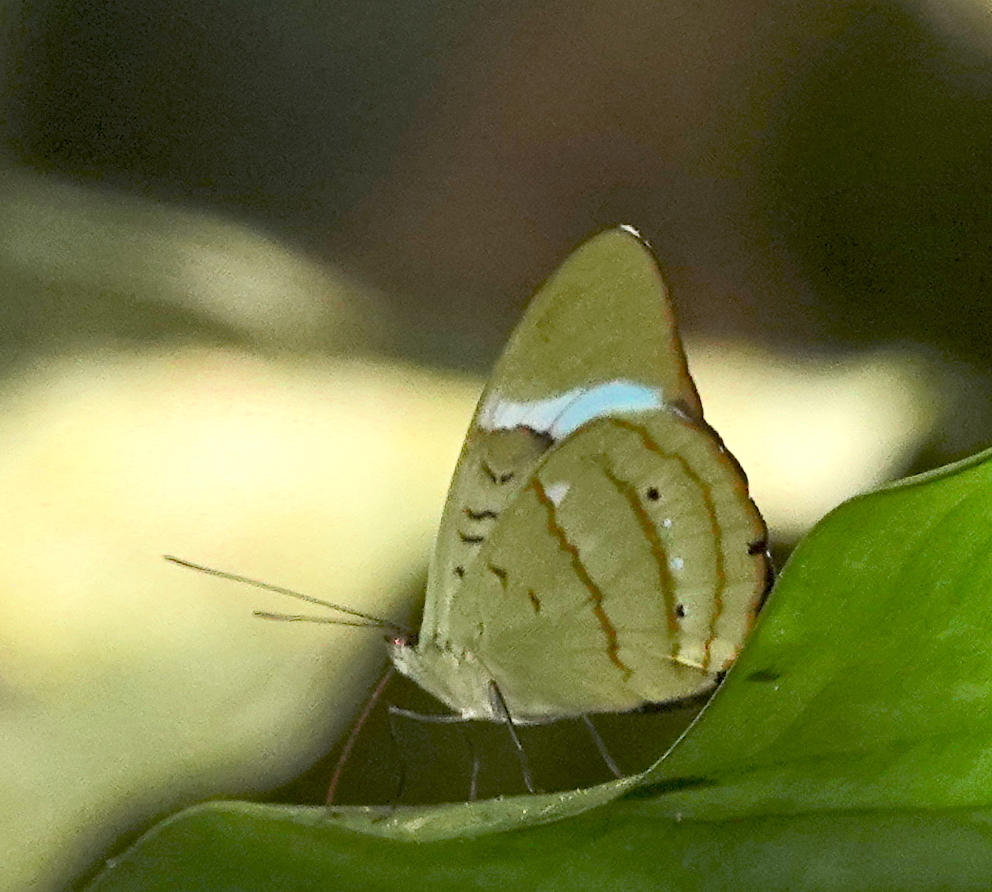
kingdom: Animalia
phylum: Arthropoda
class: Insecta
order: Lepidoptera
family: Nymphalidae
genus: Nessaea
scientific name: Nessaea hewitsonii
